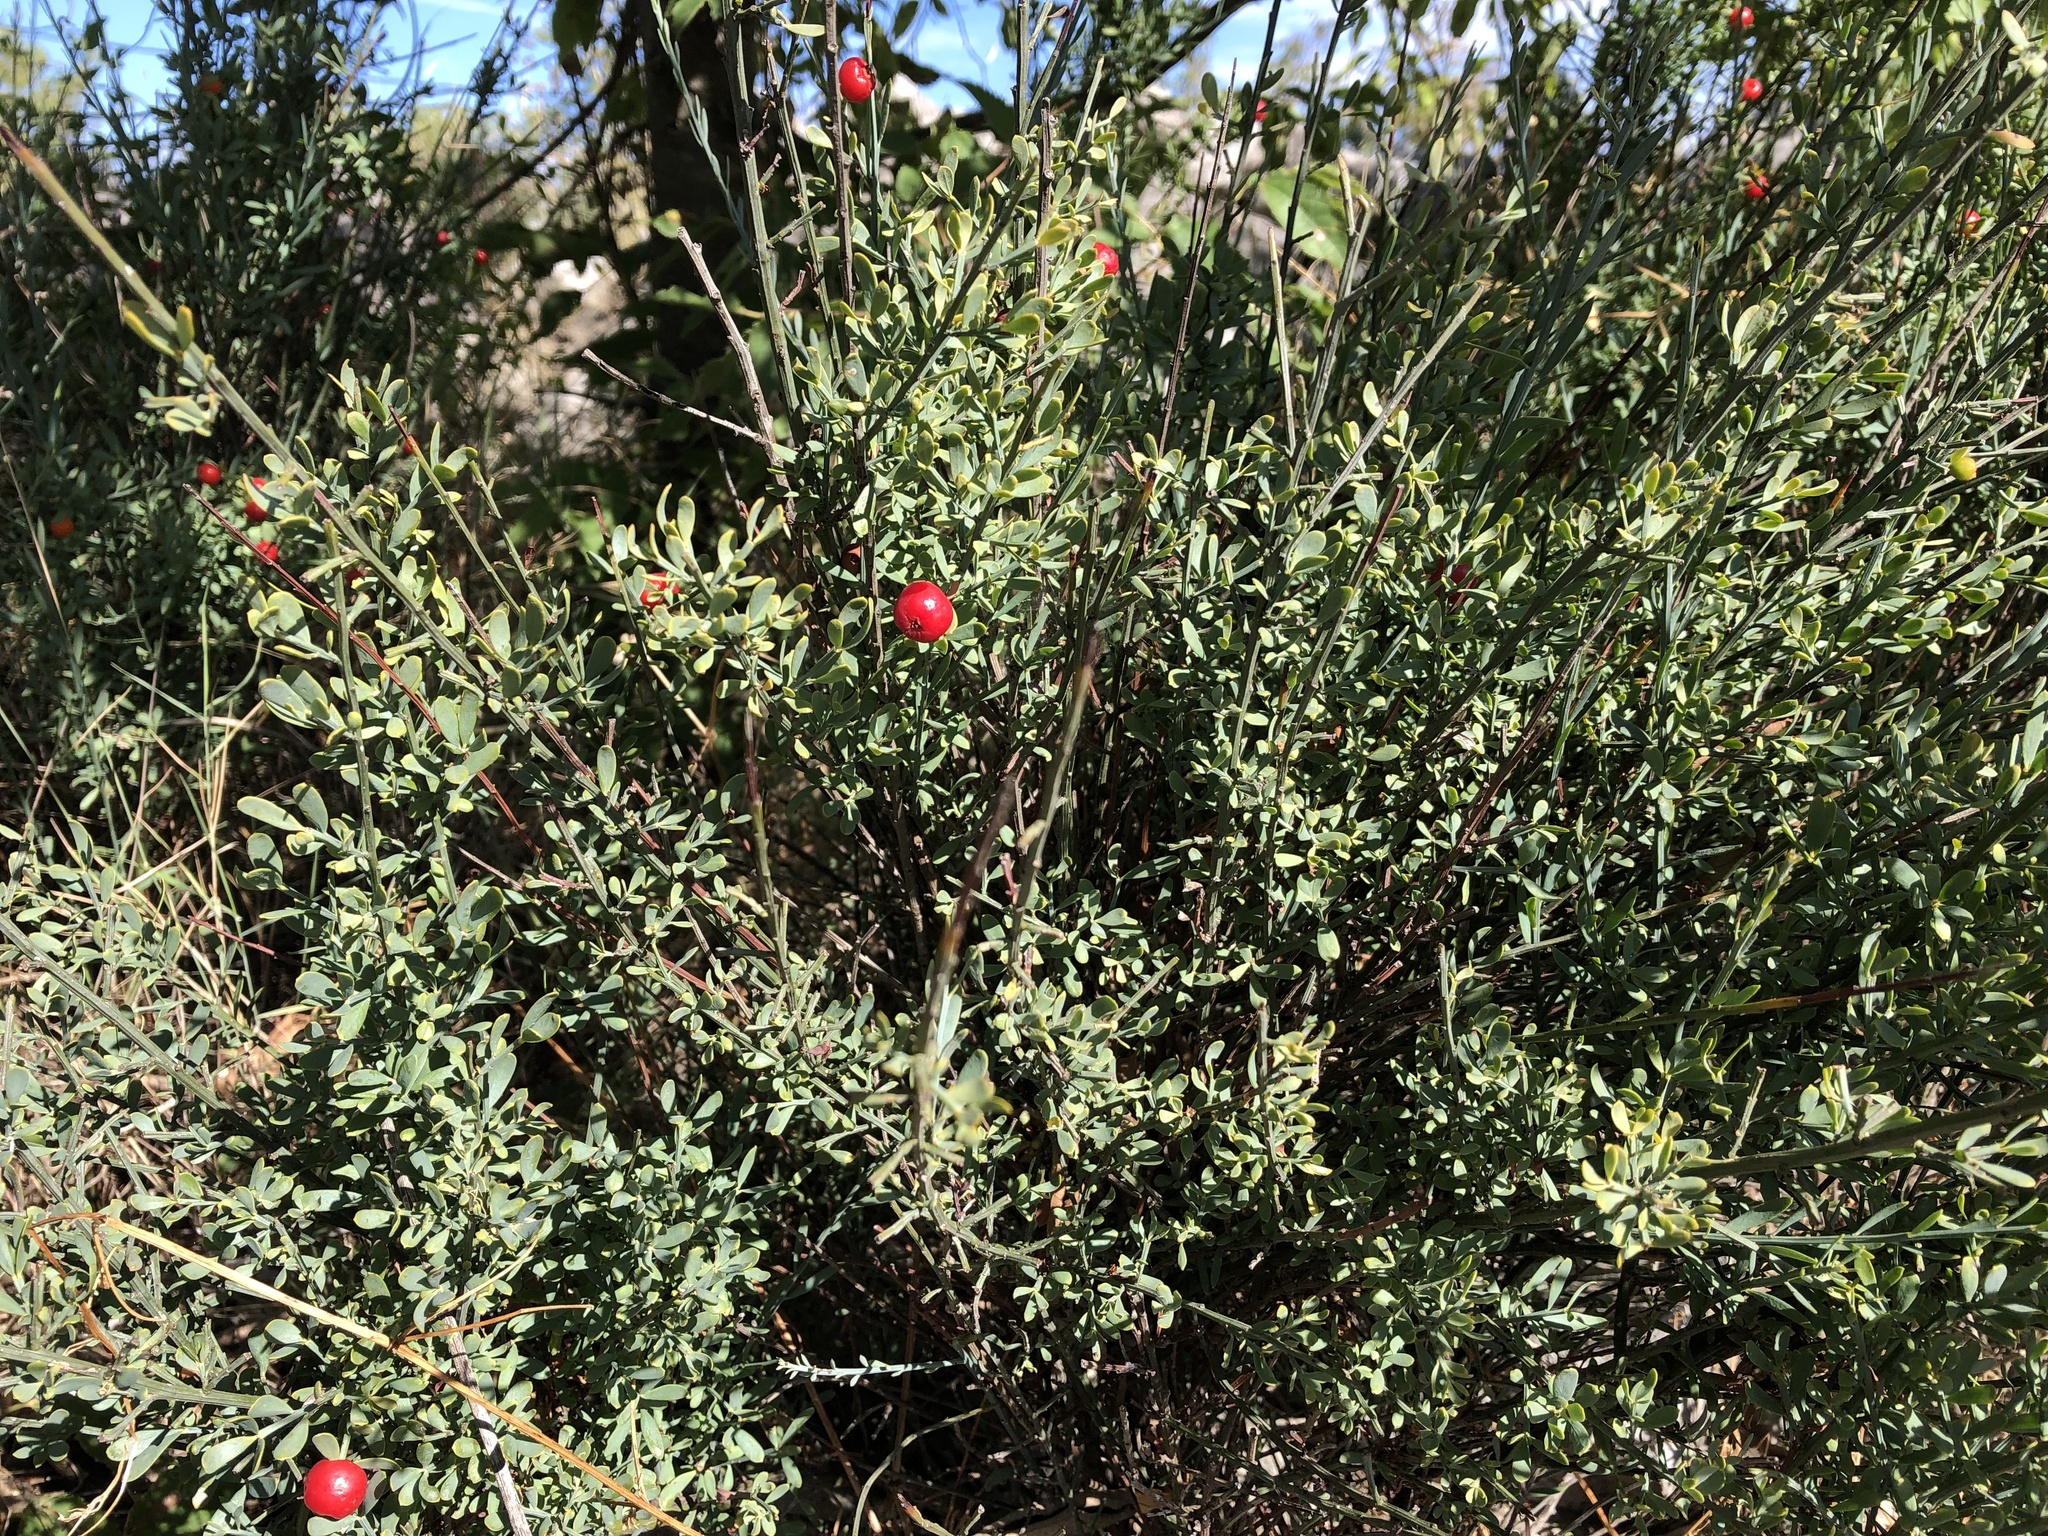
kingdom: Plantae
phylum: Tracheophyta
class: Magnoliopsida
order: Santalales
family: Santalaceae
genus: Osyris
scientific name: Osyris alba
